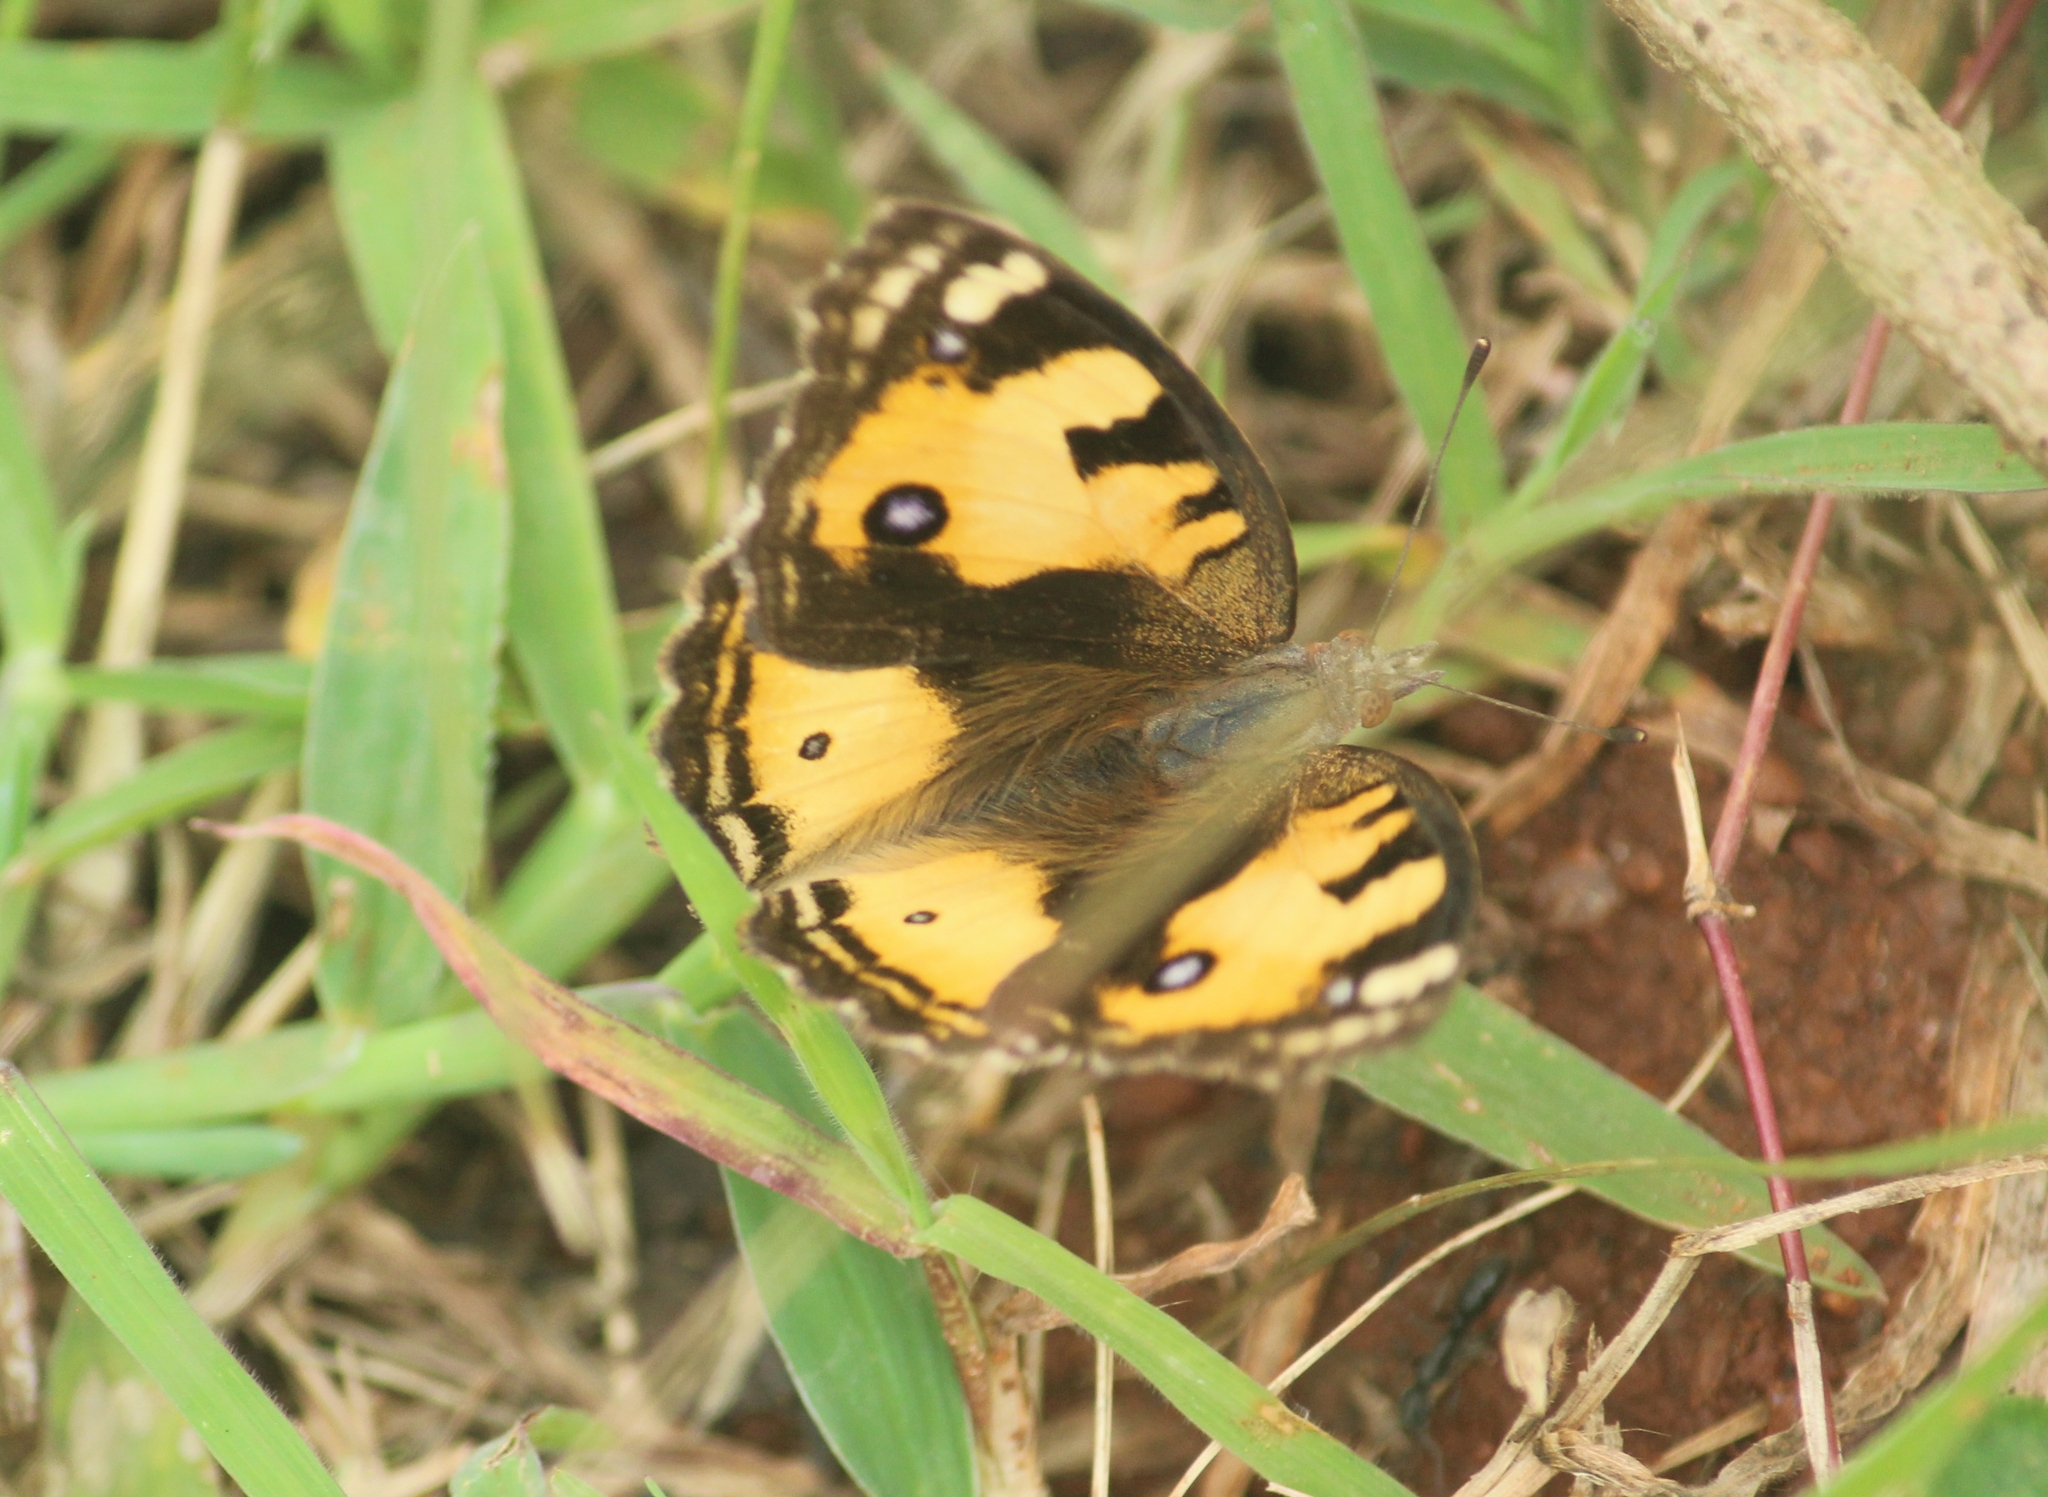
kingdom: Animalia
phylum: Arthropoda
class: Insecta
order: Lepidoptera
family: Nymphalidae
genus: Junonia
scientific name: Junonia hierta
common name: Yellow pansy
